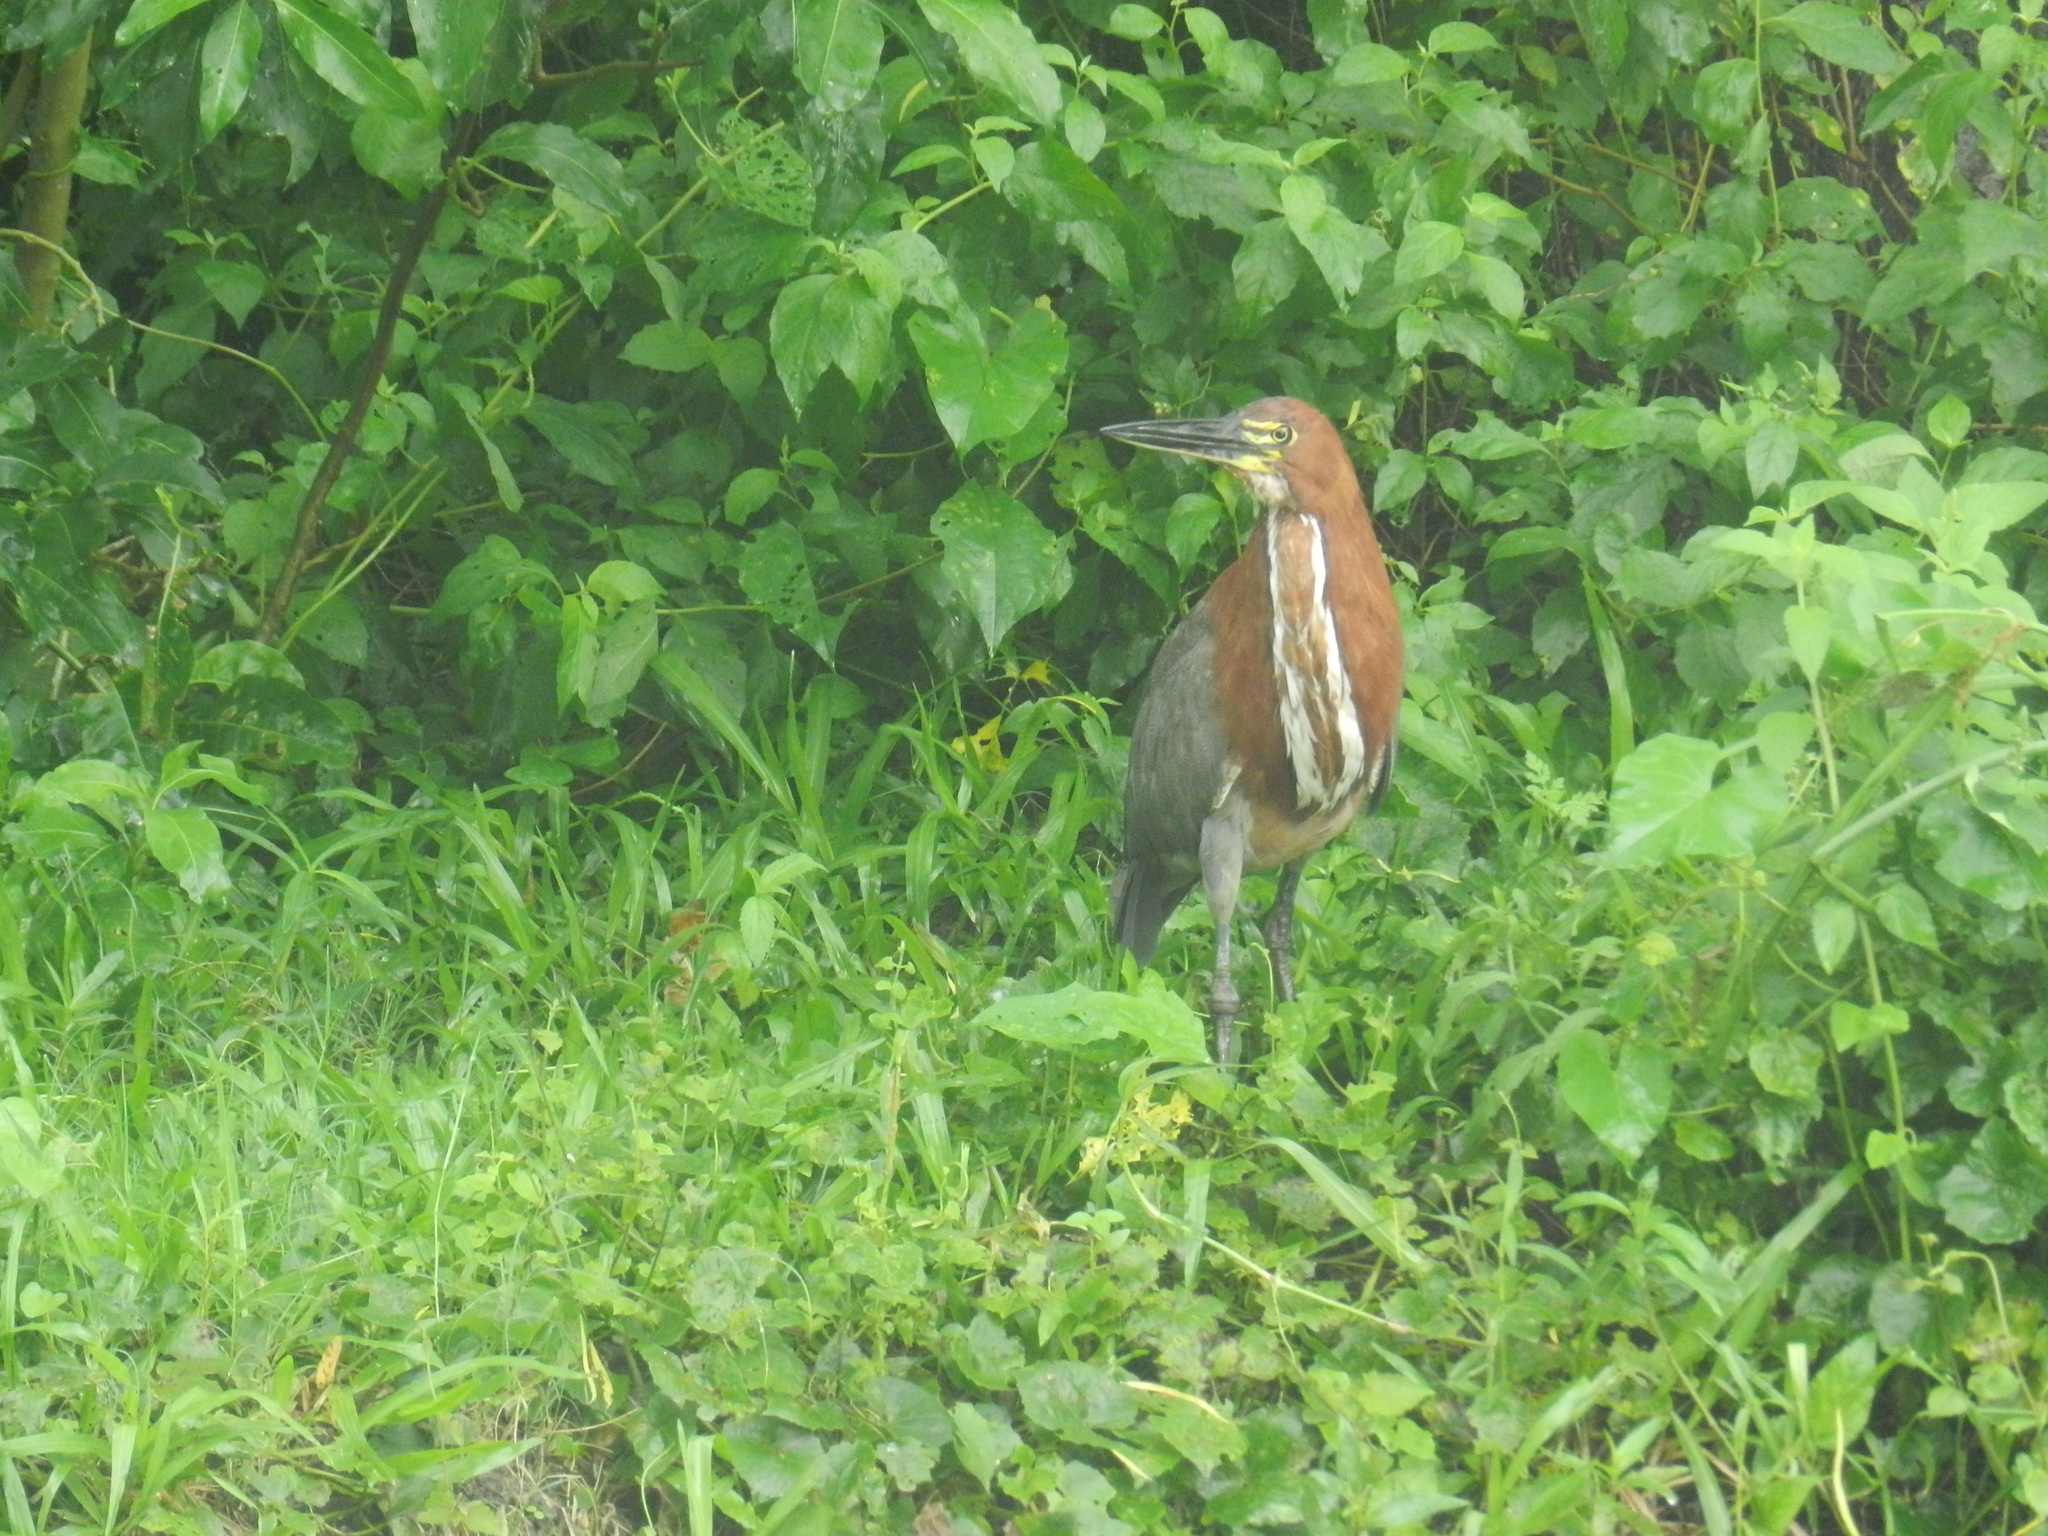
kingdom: Animalia
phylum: Chordata
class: Aves
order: Pelecaniformes
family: Ardeidae
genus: Tigrisoma
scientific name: Tigrisoma lineatum
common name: Rufescent tiger-heron
